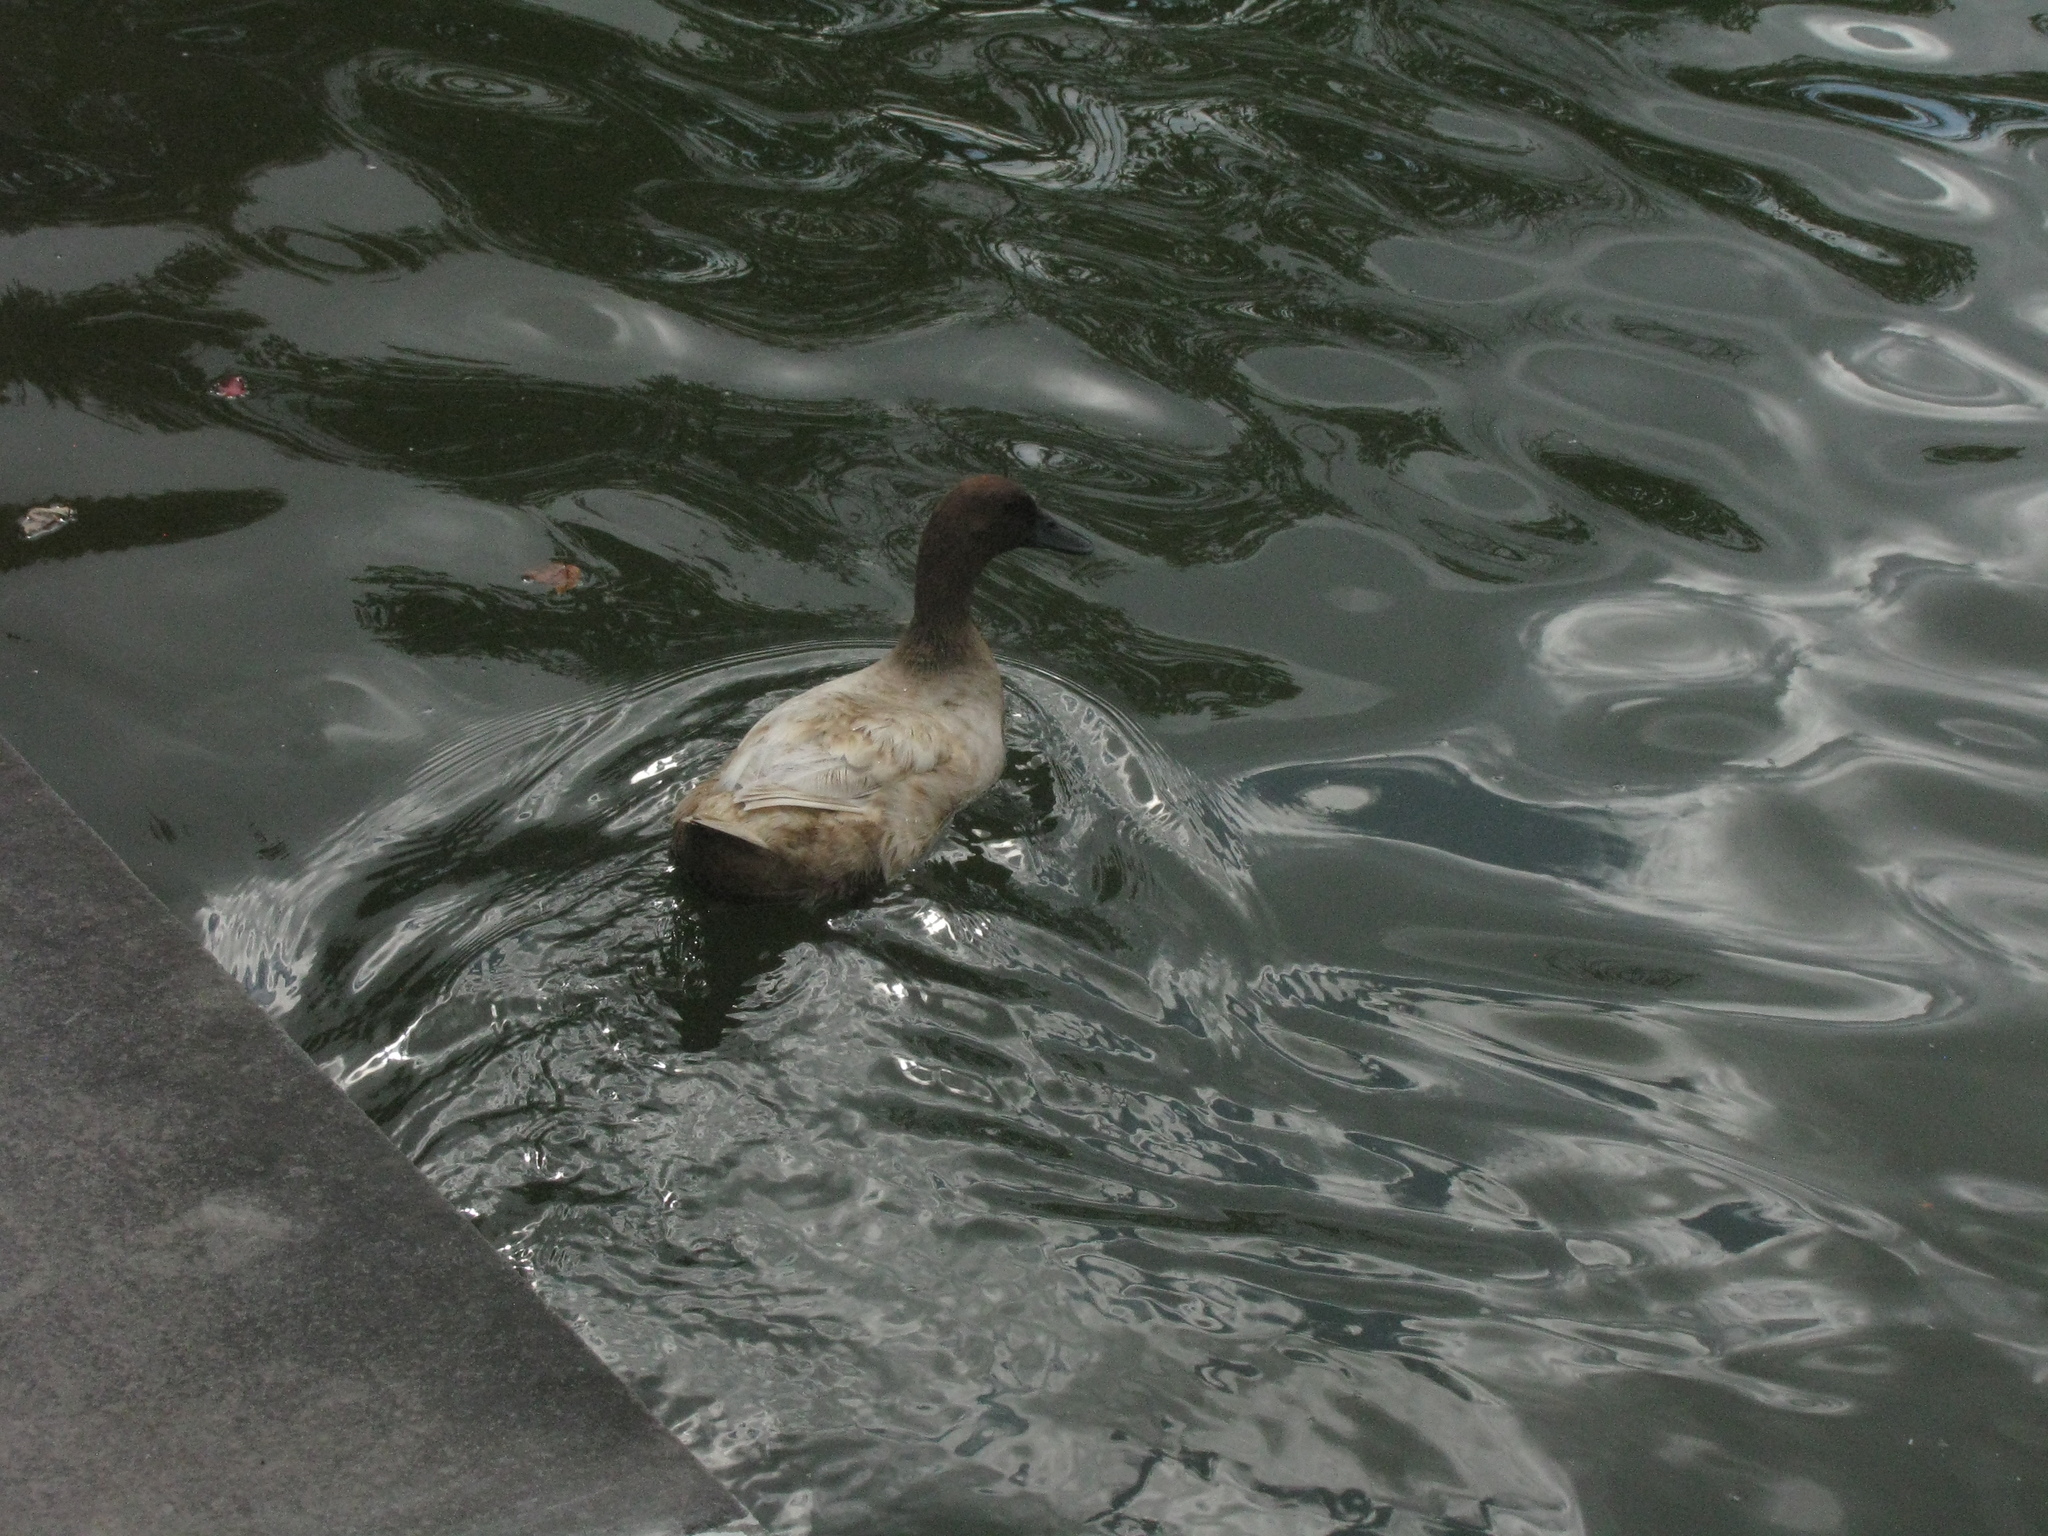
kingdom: Animalia
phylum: Chordata
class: Aves
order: Anseriformes
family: Anatidae
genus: Anas
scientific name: Anas platyrhynchos
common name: Mallard
